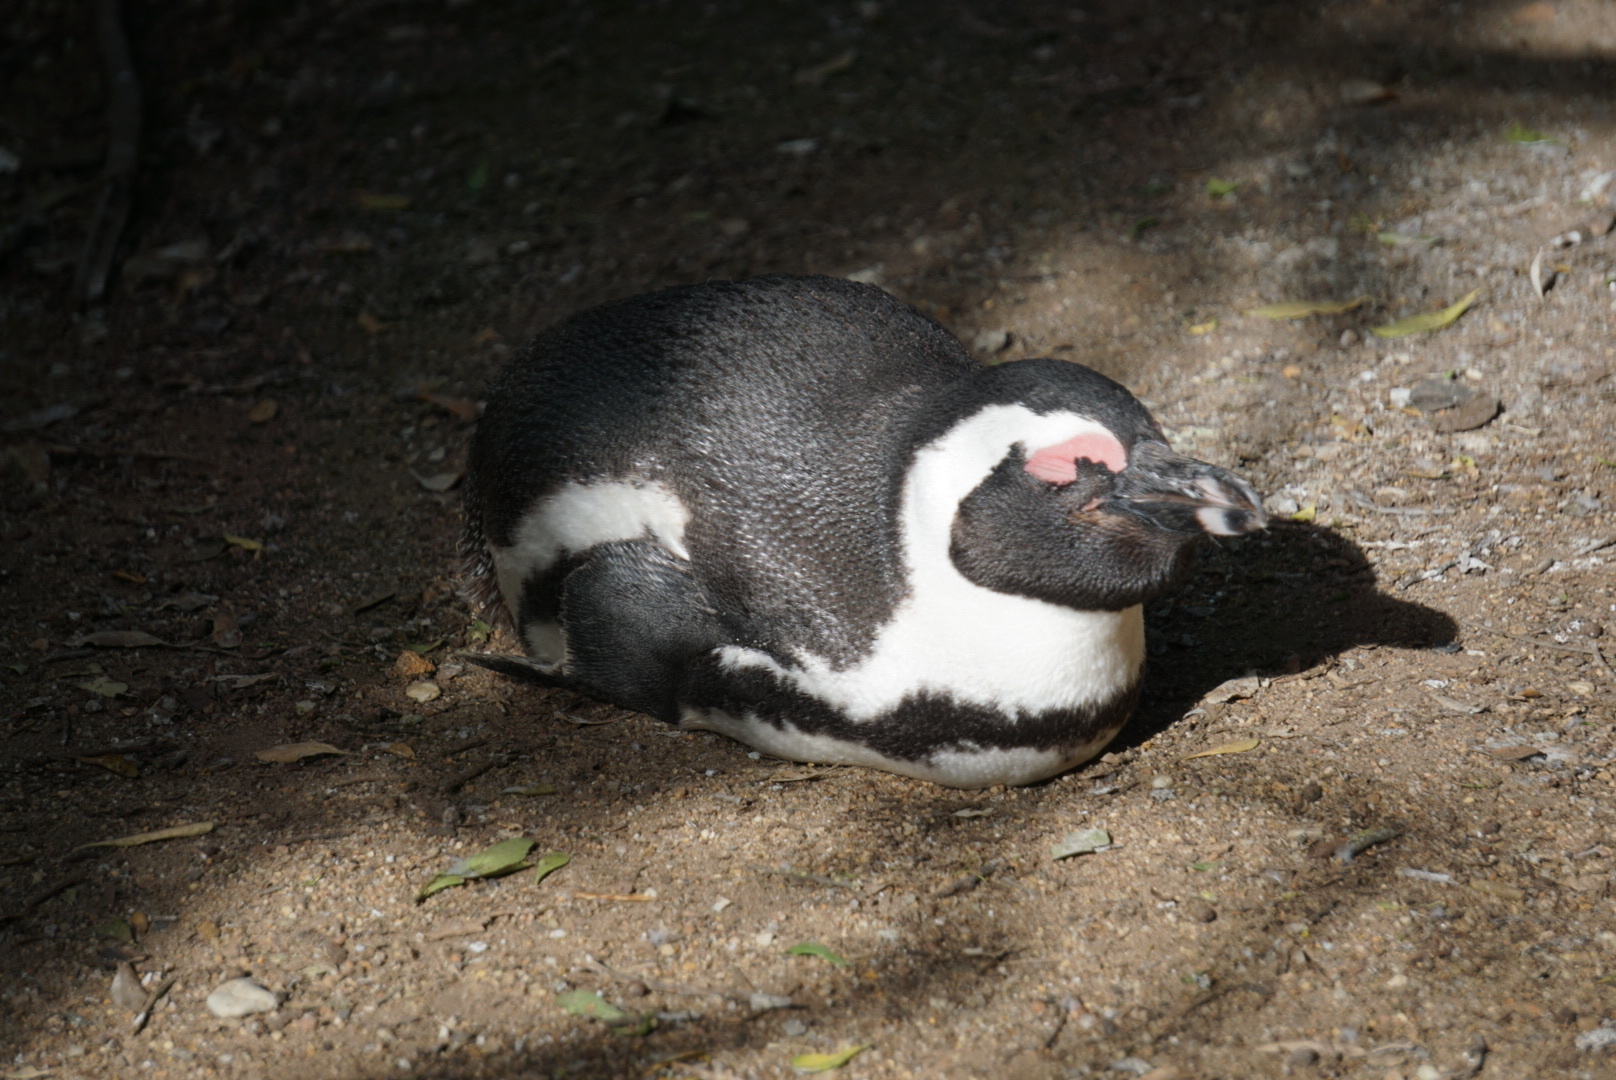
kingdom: Animalia
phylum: Chordata
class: Aves
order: Sphenisciformes
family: Spheniscidae
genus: Spheniscus
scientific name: Spheniscus demersus
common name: African penguin
